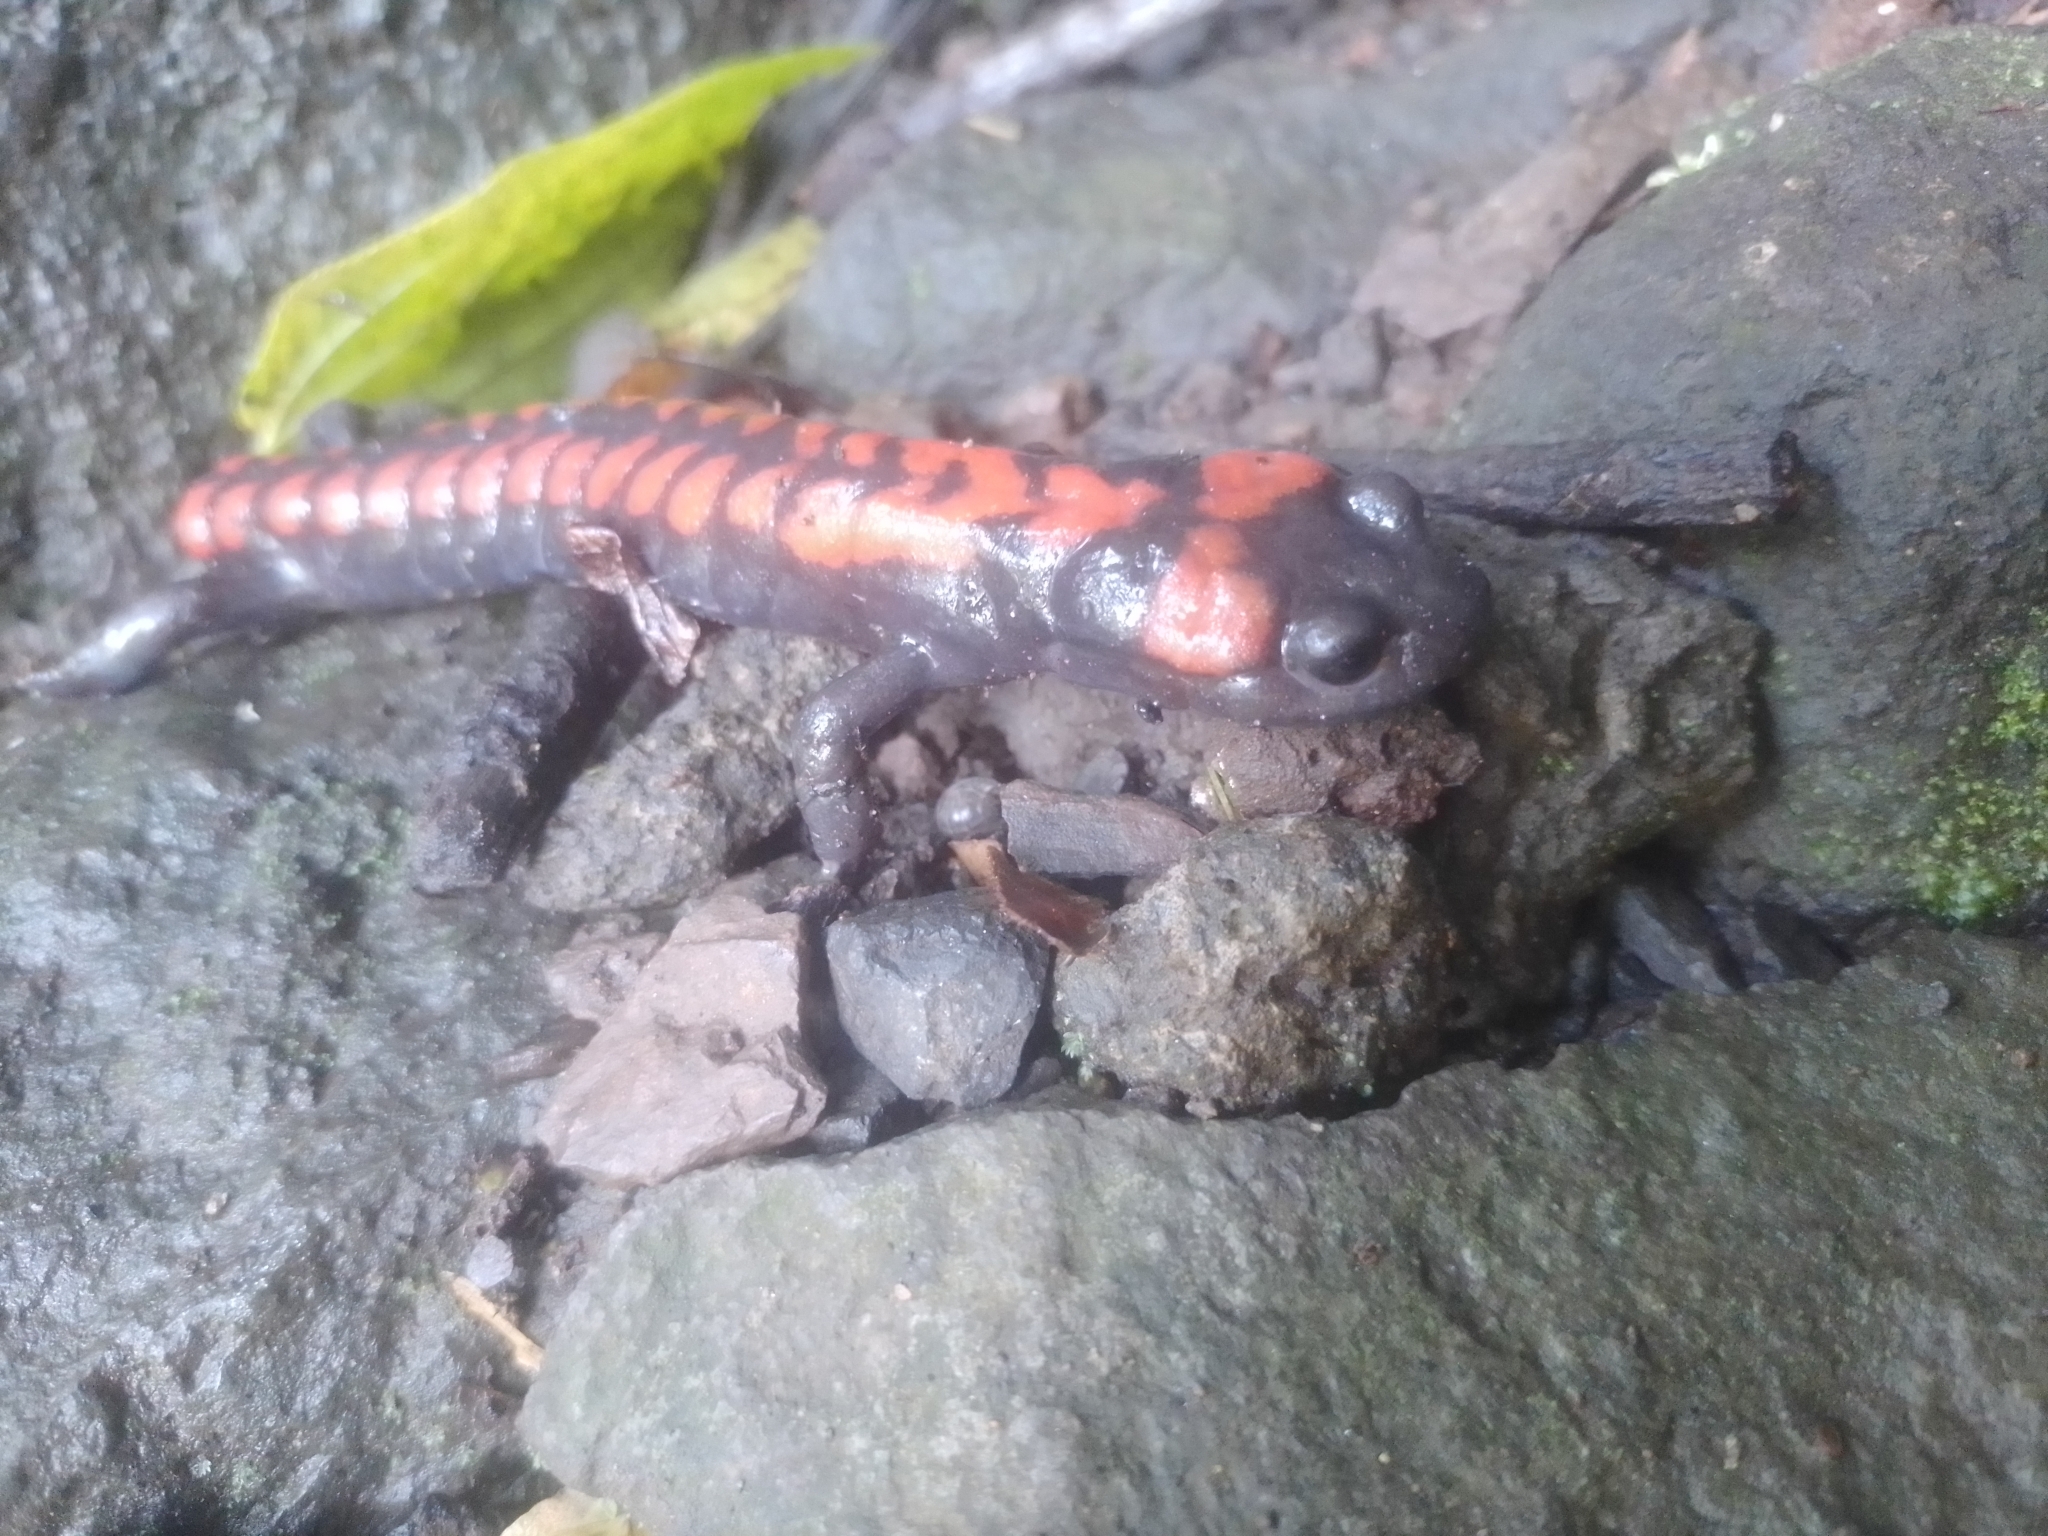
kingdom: Animalia
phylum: Chordata
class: Amphibia
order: Caudata
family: Plethodontidae
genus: Isthmura
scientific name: Isthmura bellii
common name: Bell's false brook salamander
